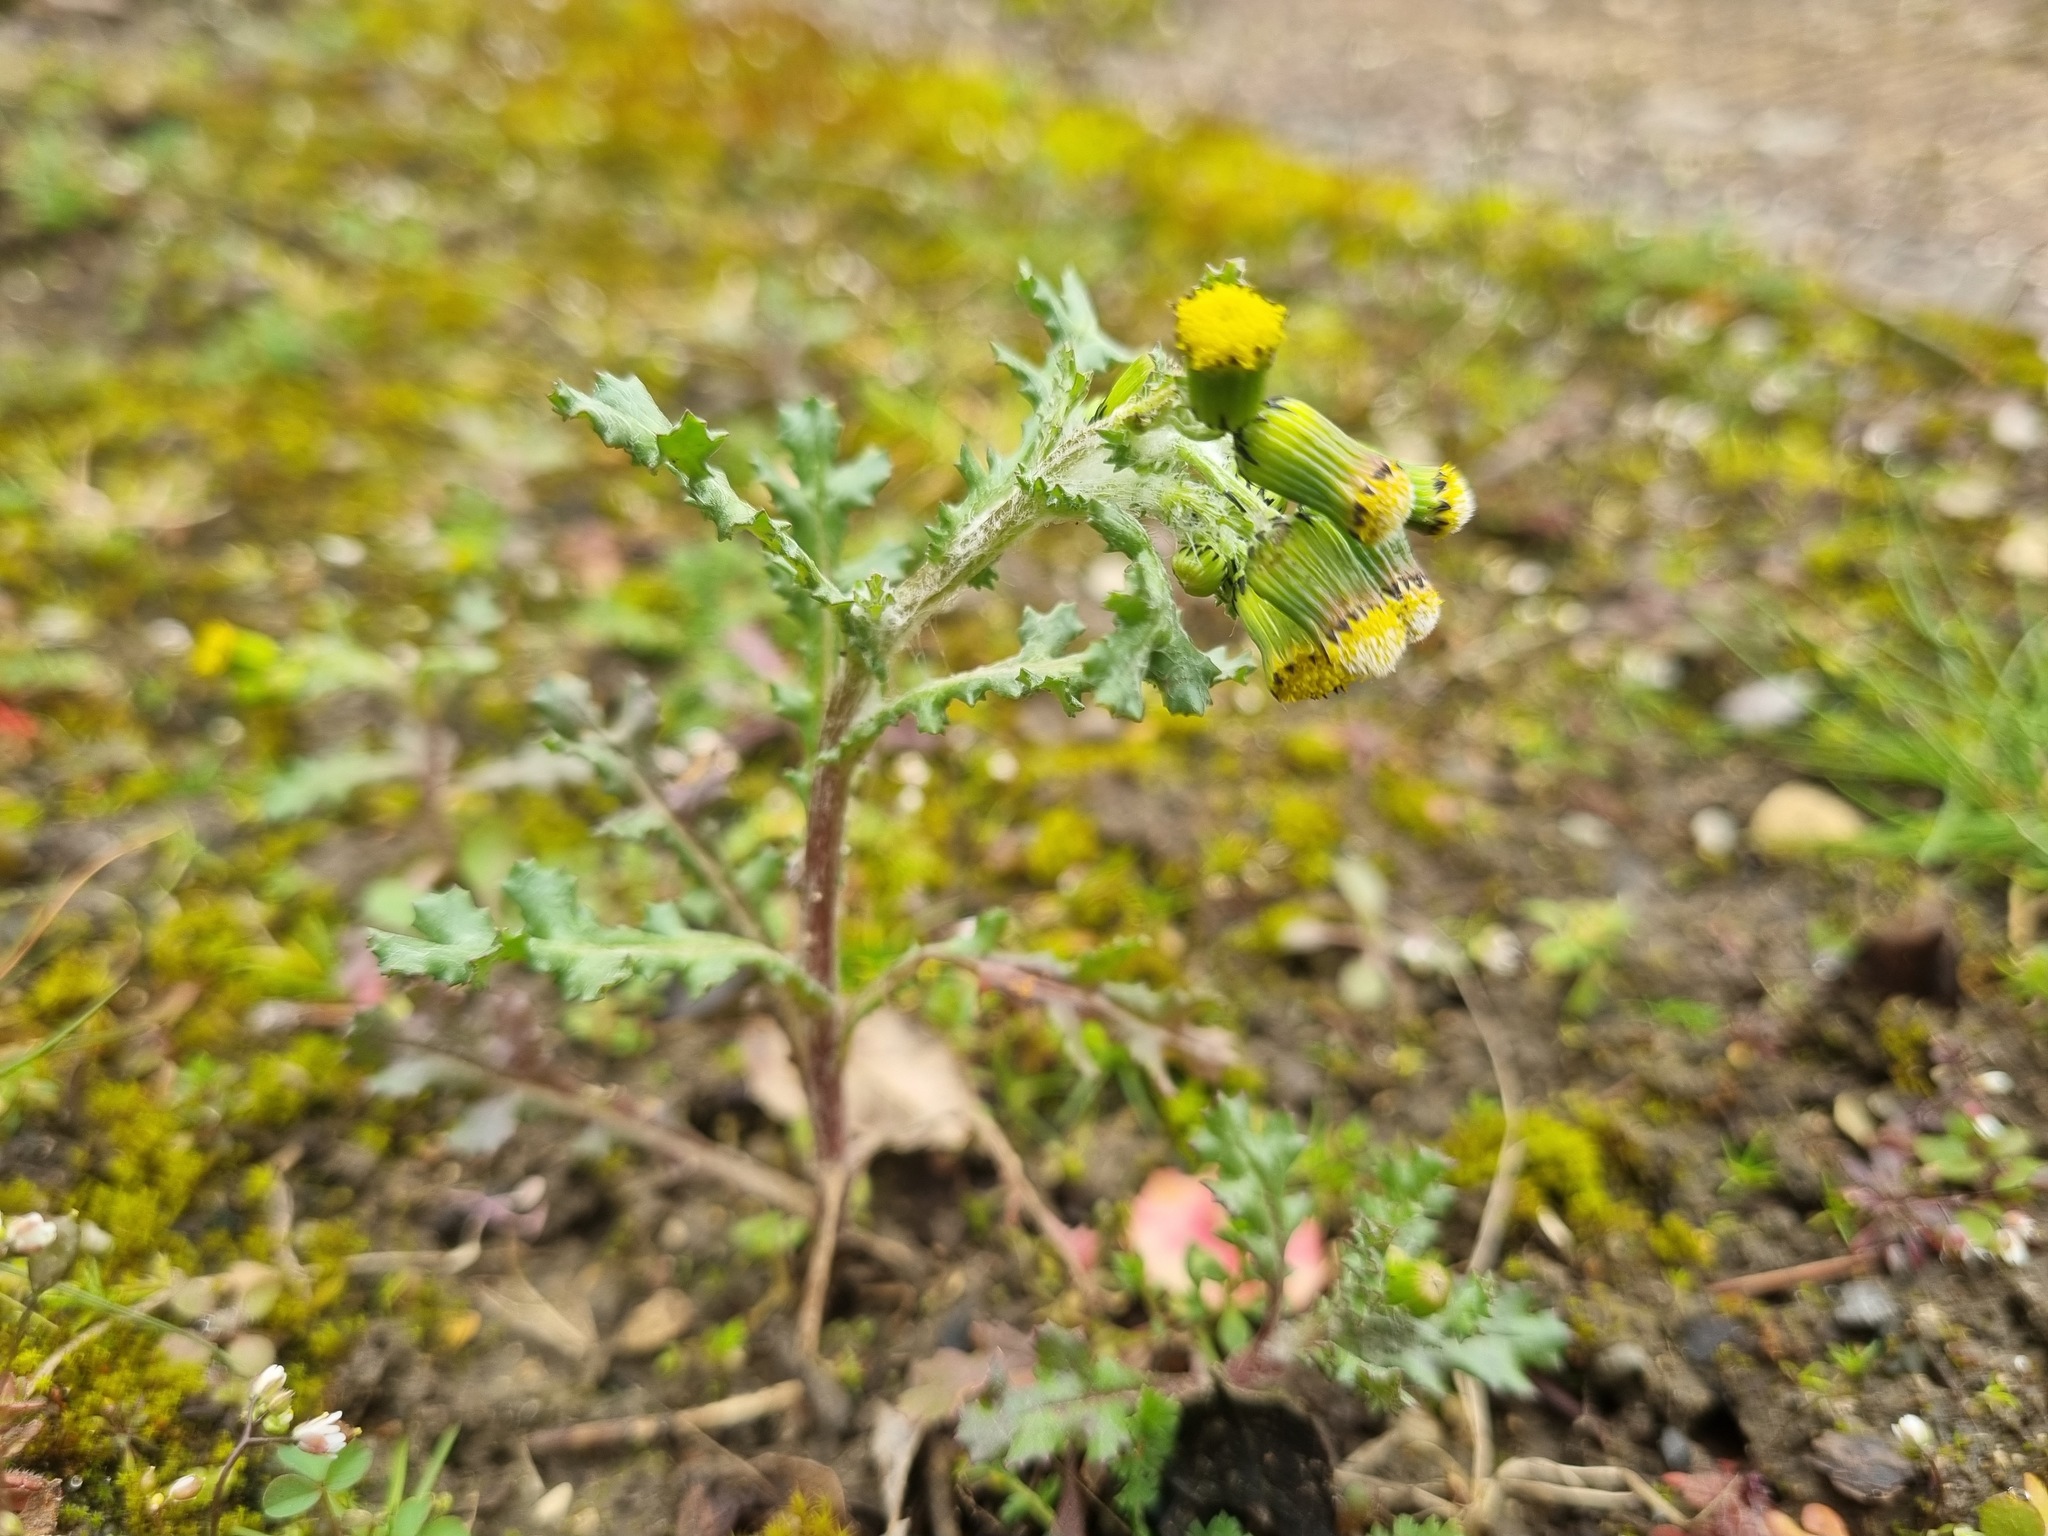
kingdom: Plantae
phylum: Tracheophyta
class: Magnoliopsida
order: Asterales
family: Asteraceae
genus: Senecio
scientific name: Senecio vulgaris
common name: Old-man-in-the-spring
